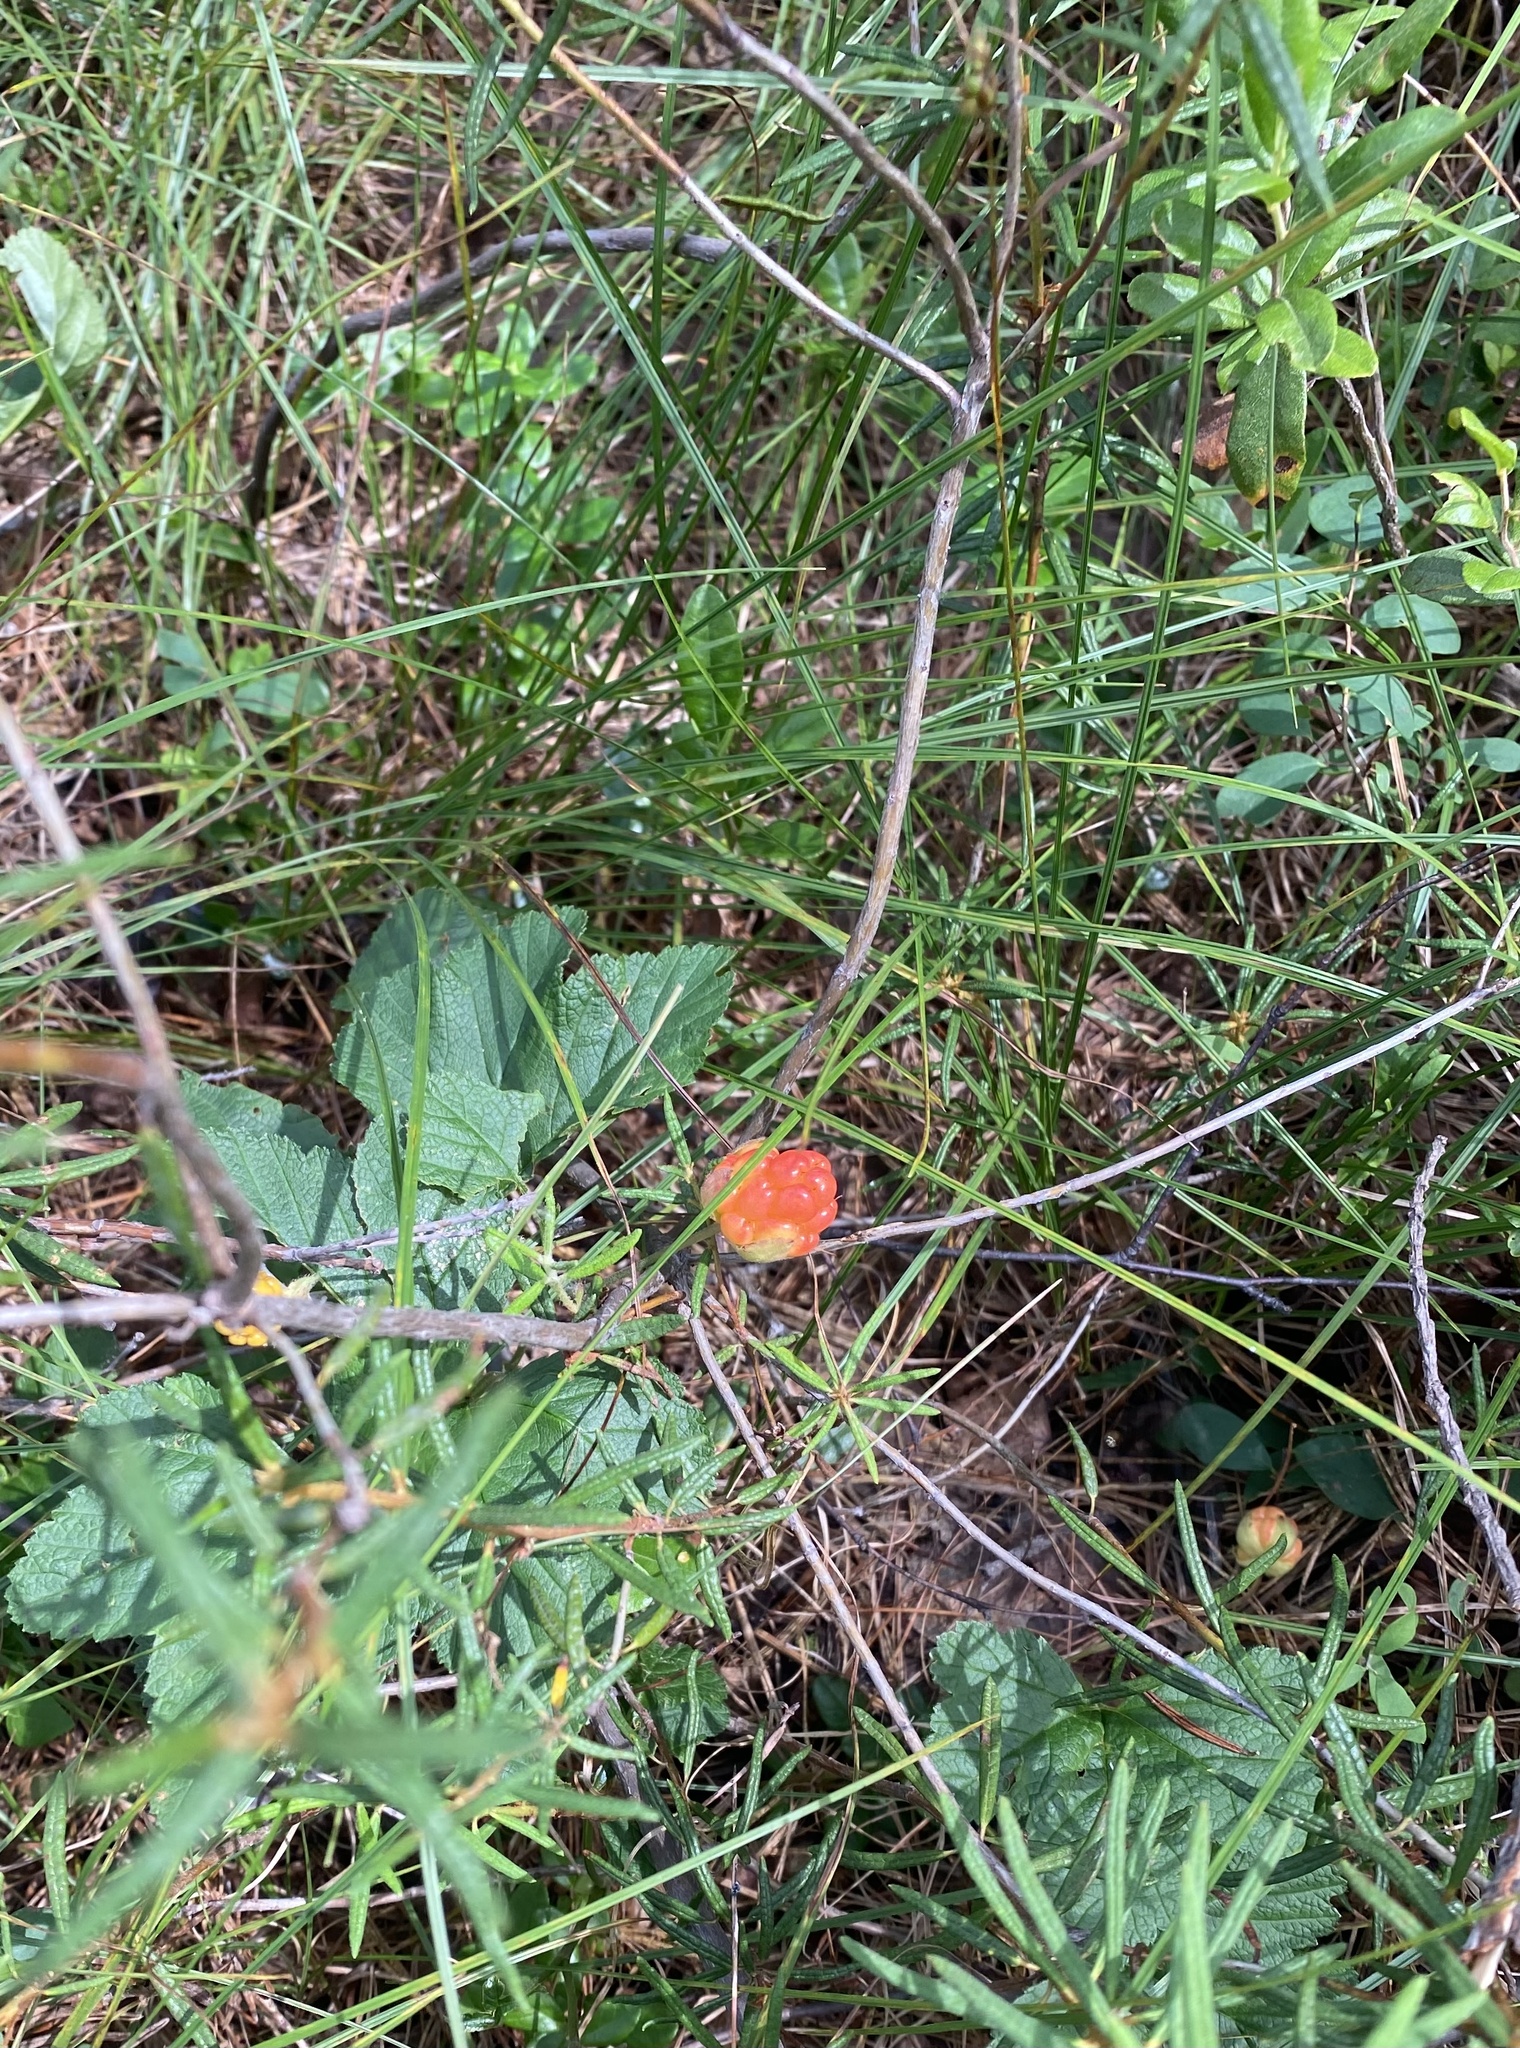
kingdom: Plantae
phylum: Tracheophyta
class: Magnoliopsida
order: Rosales
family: Rosaceae
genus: Rubus
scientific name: Rubus chamaemorus
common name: Cloudberry
